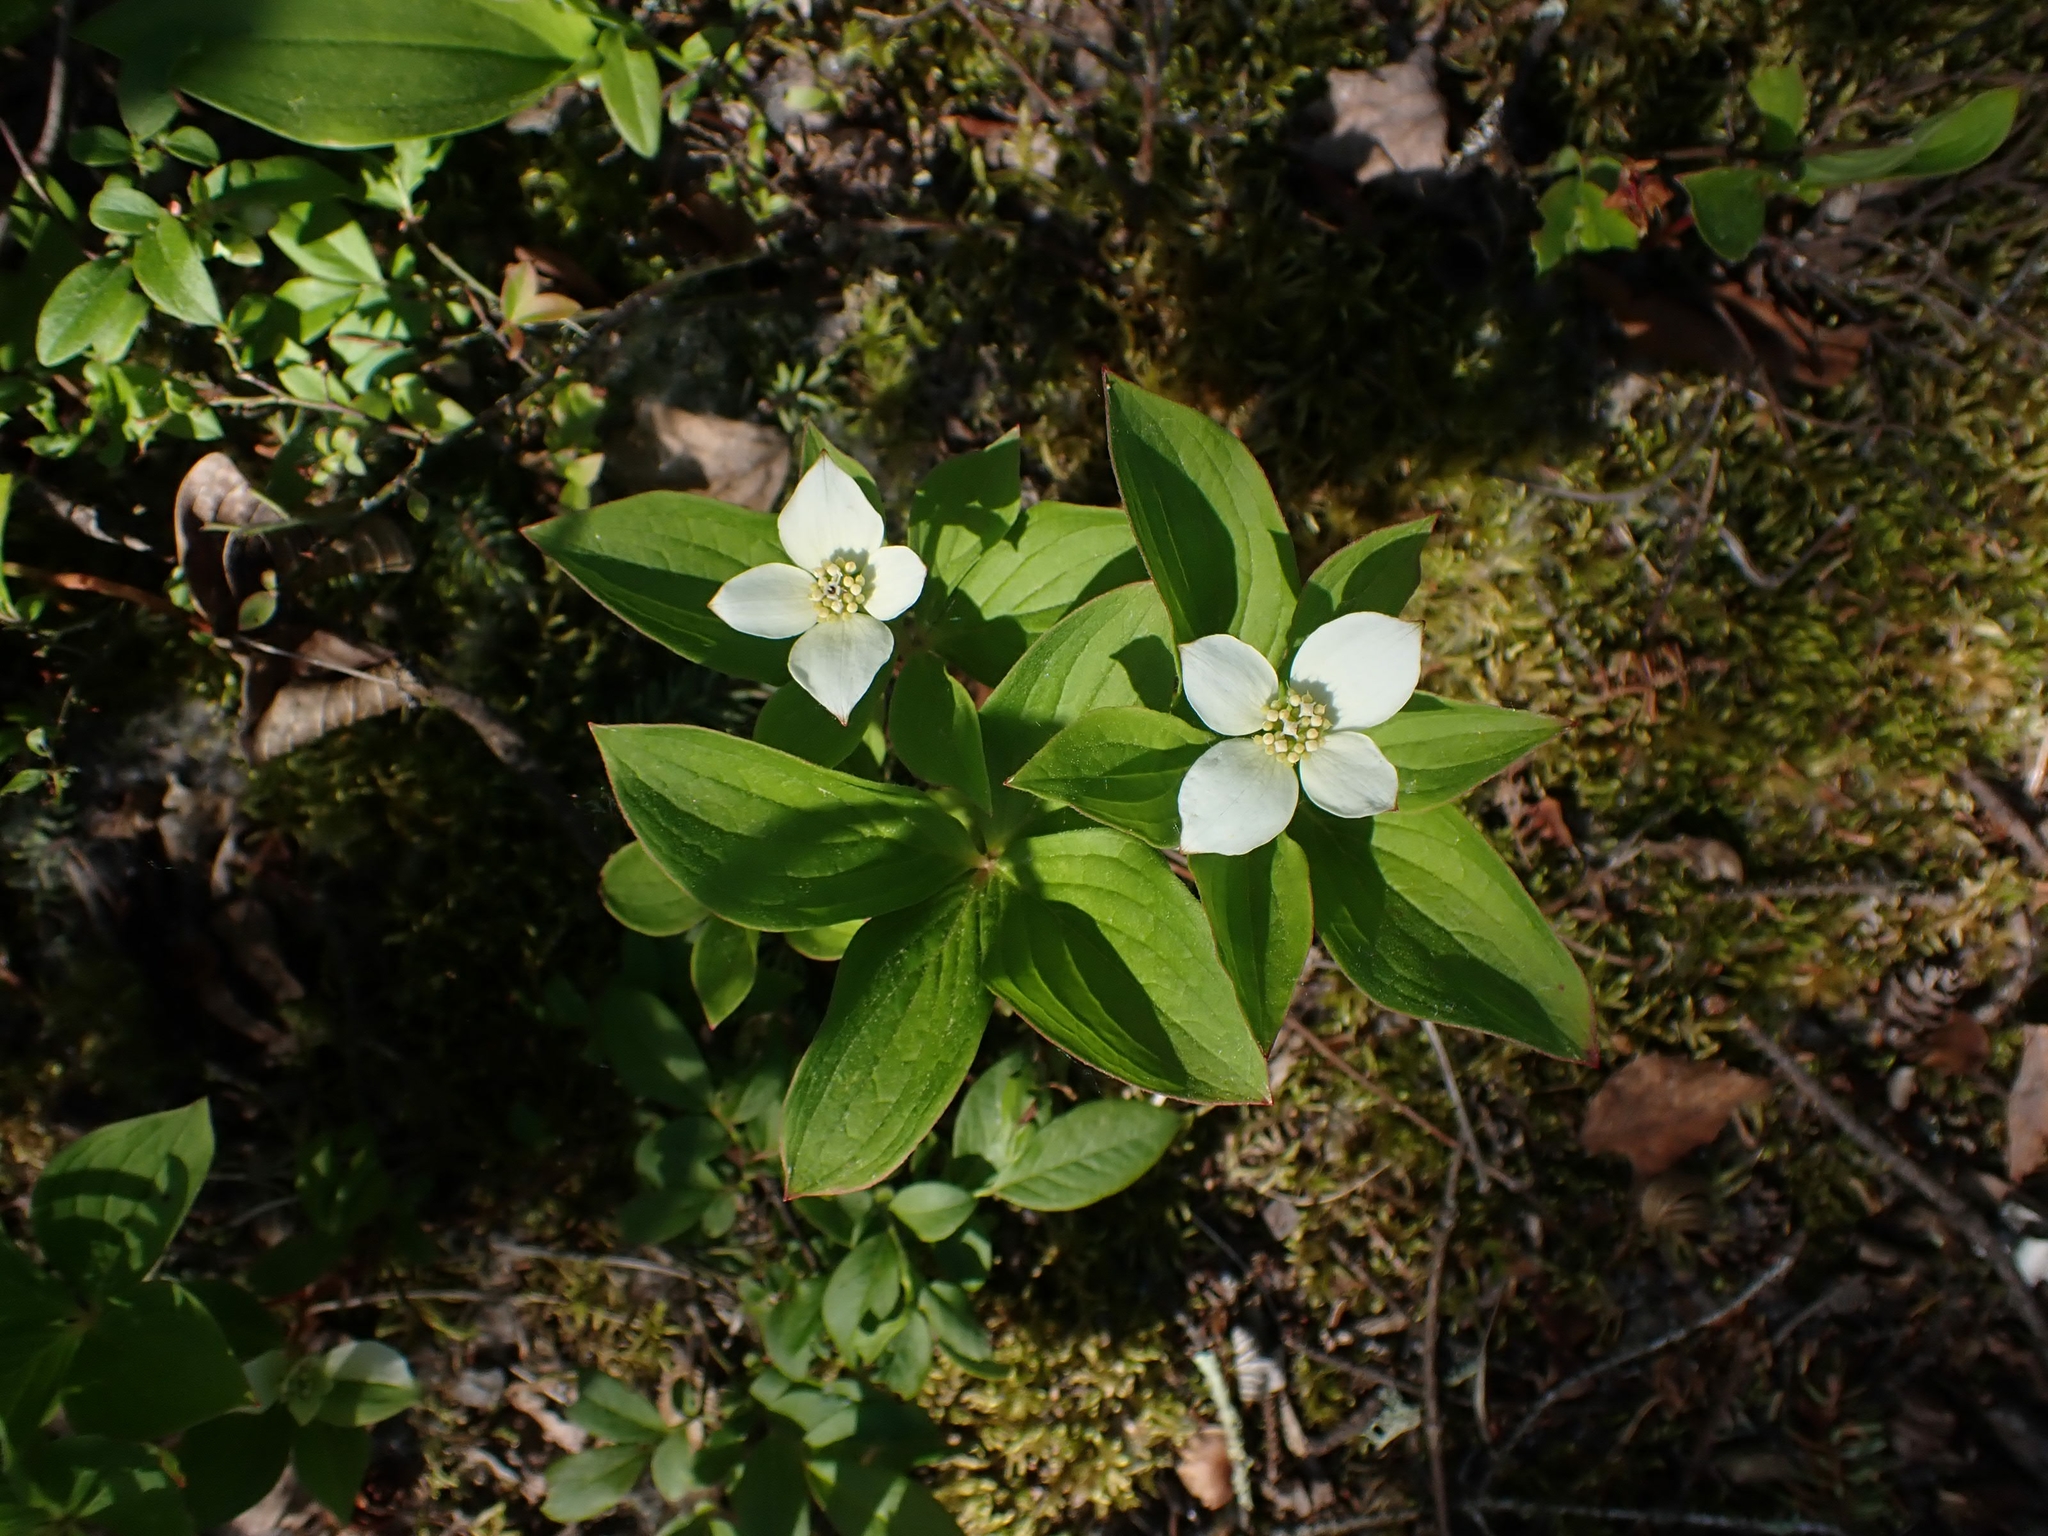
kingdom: Plantae
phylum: Tracheophyta
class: Magnoliopsida
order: Cornales
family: Cornaceae
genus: Cornus
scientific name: Cornus canadensis
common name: Creeping dogwood
